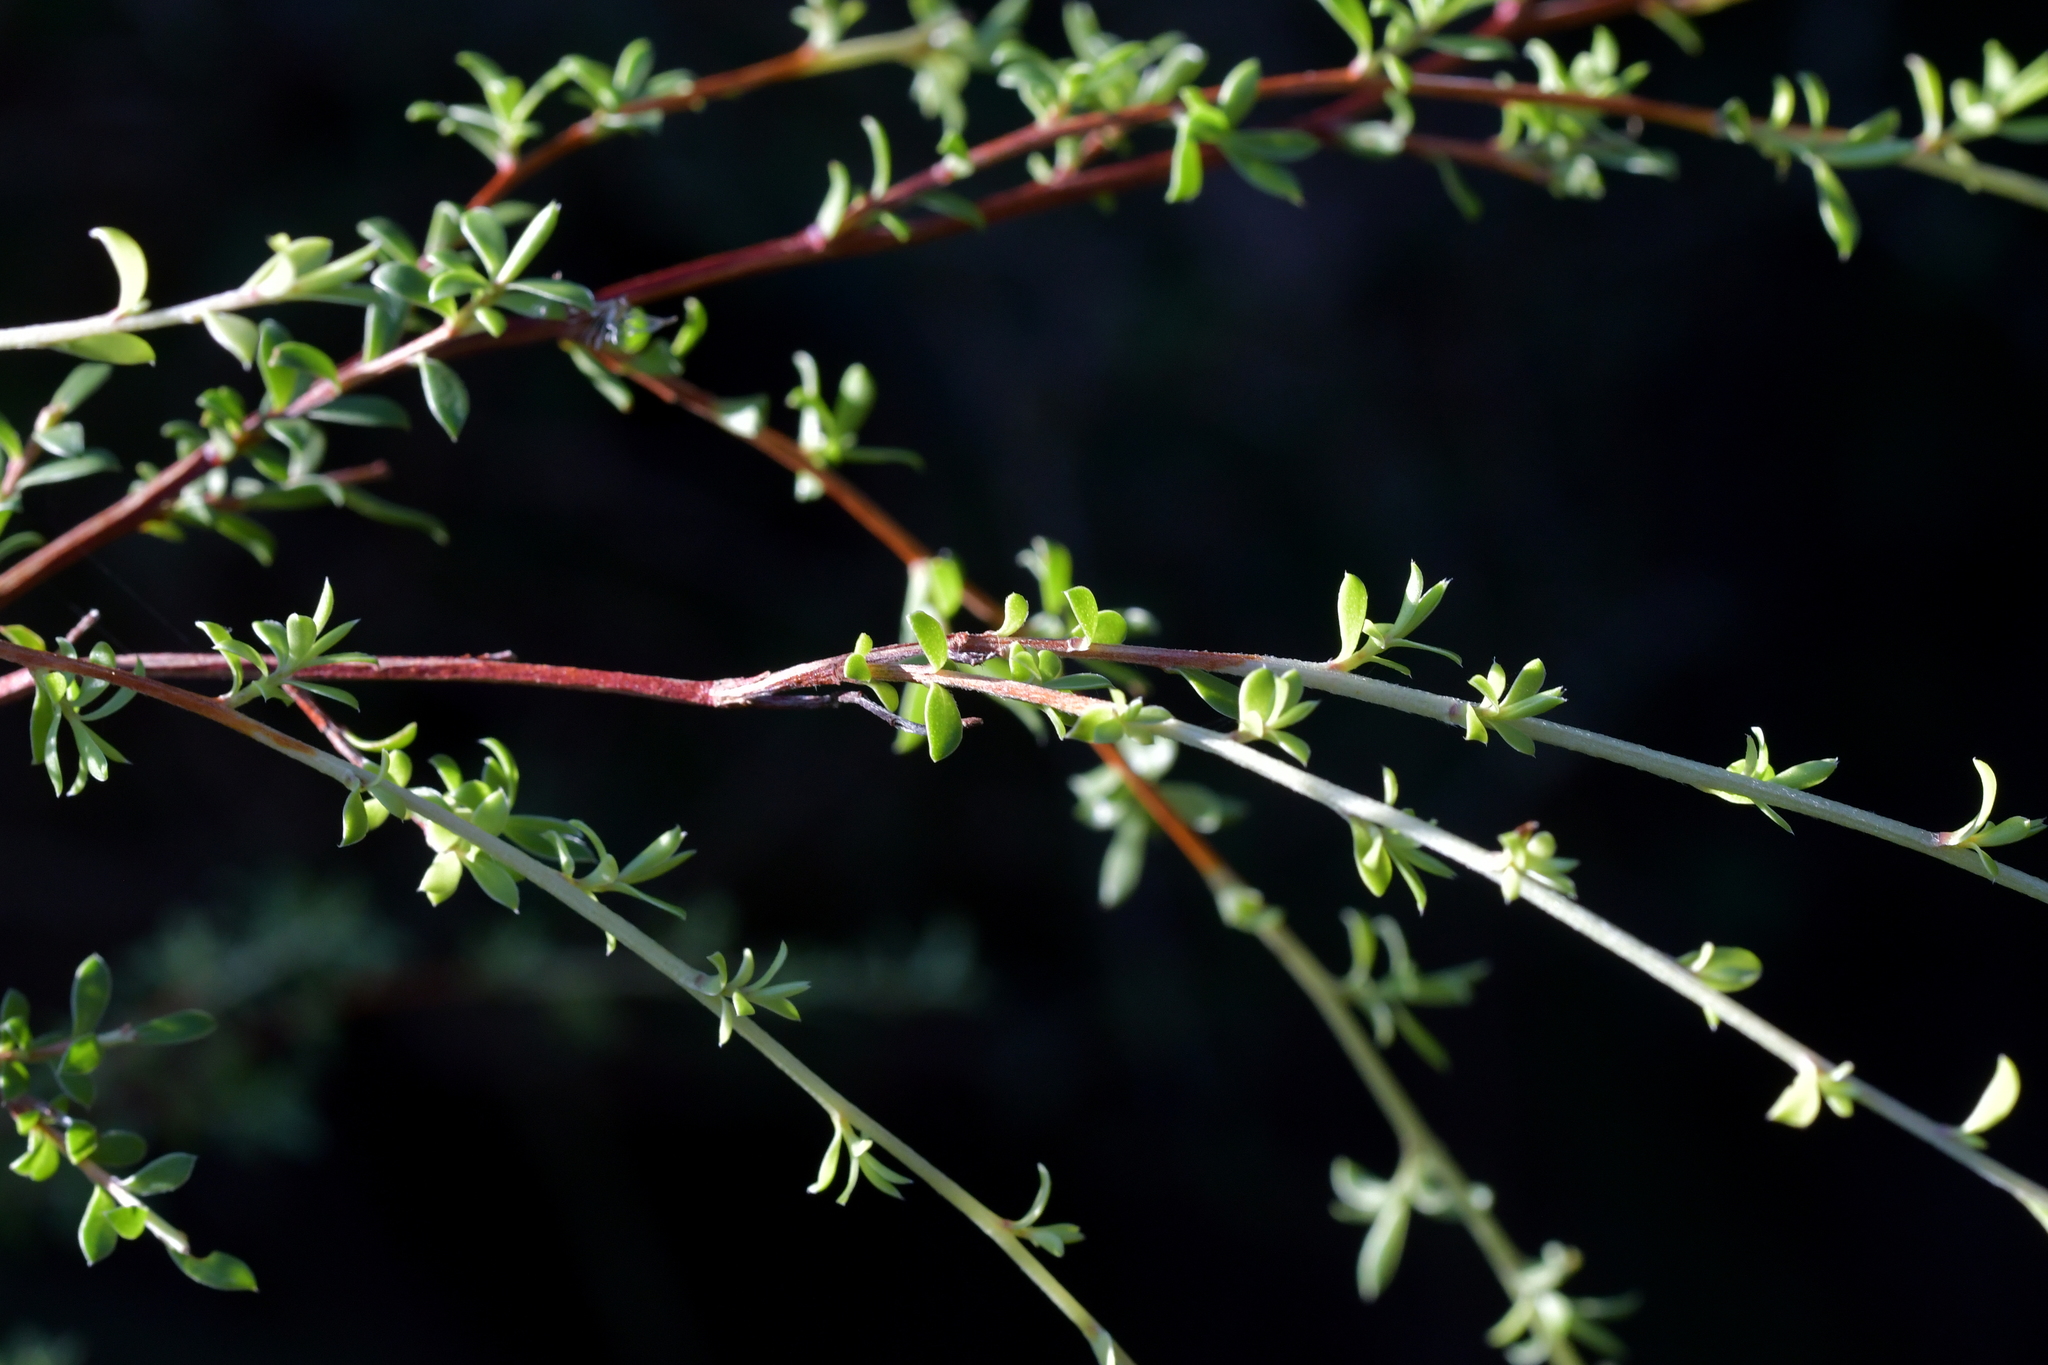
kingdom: Plantae
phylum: Tracheophyta
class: Magnoliopsida
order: Myrtales
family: Myrtaceae
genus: Kunzea
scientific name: Kunzea robusta
